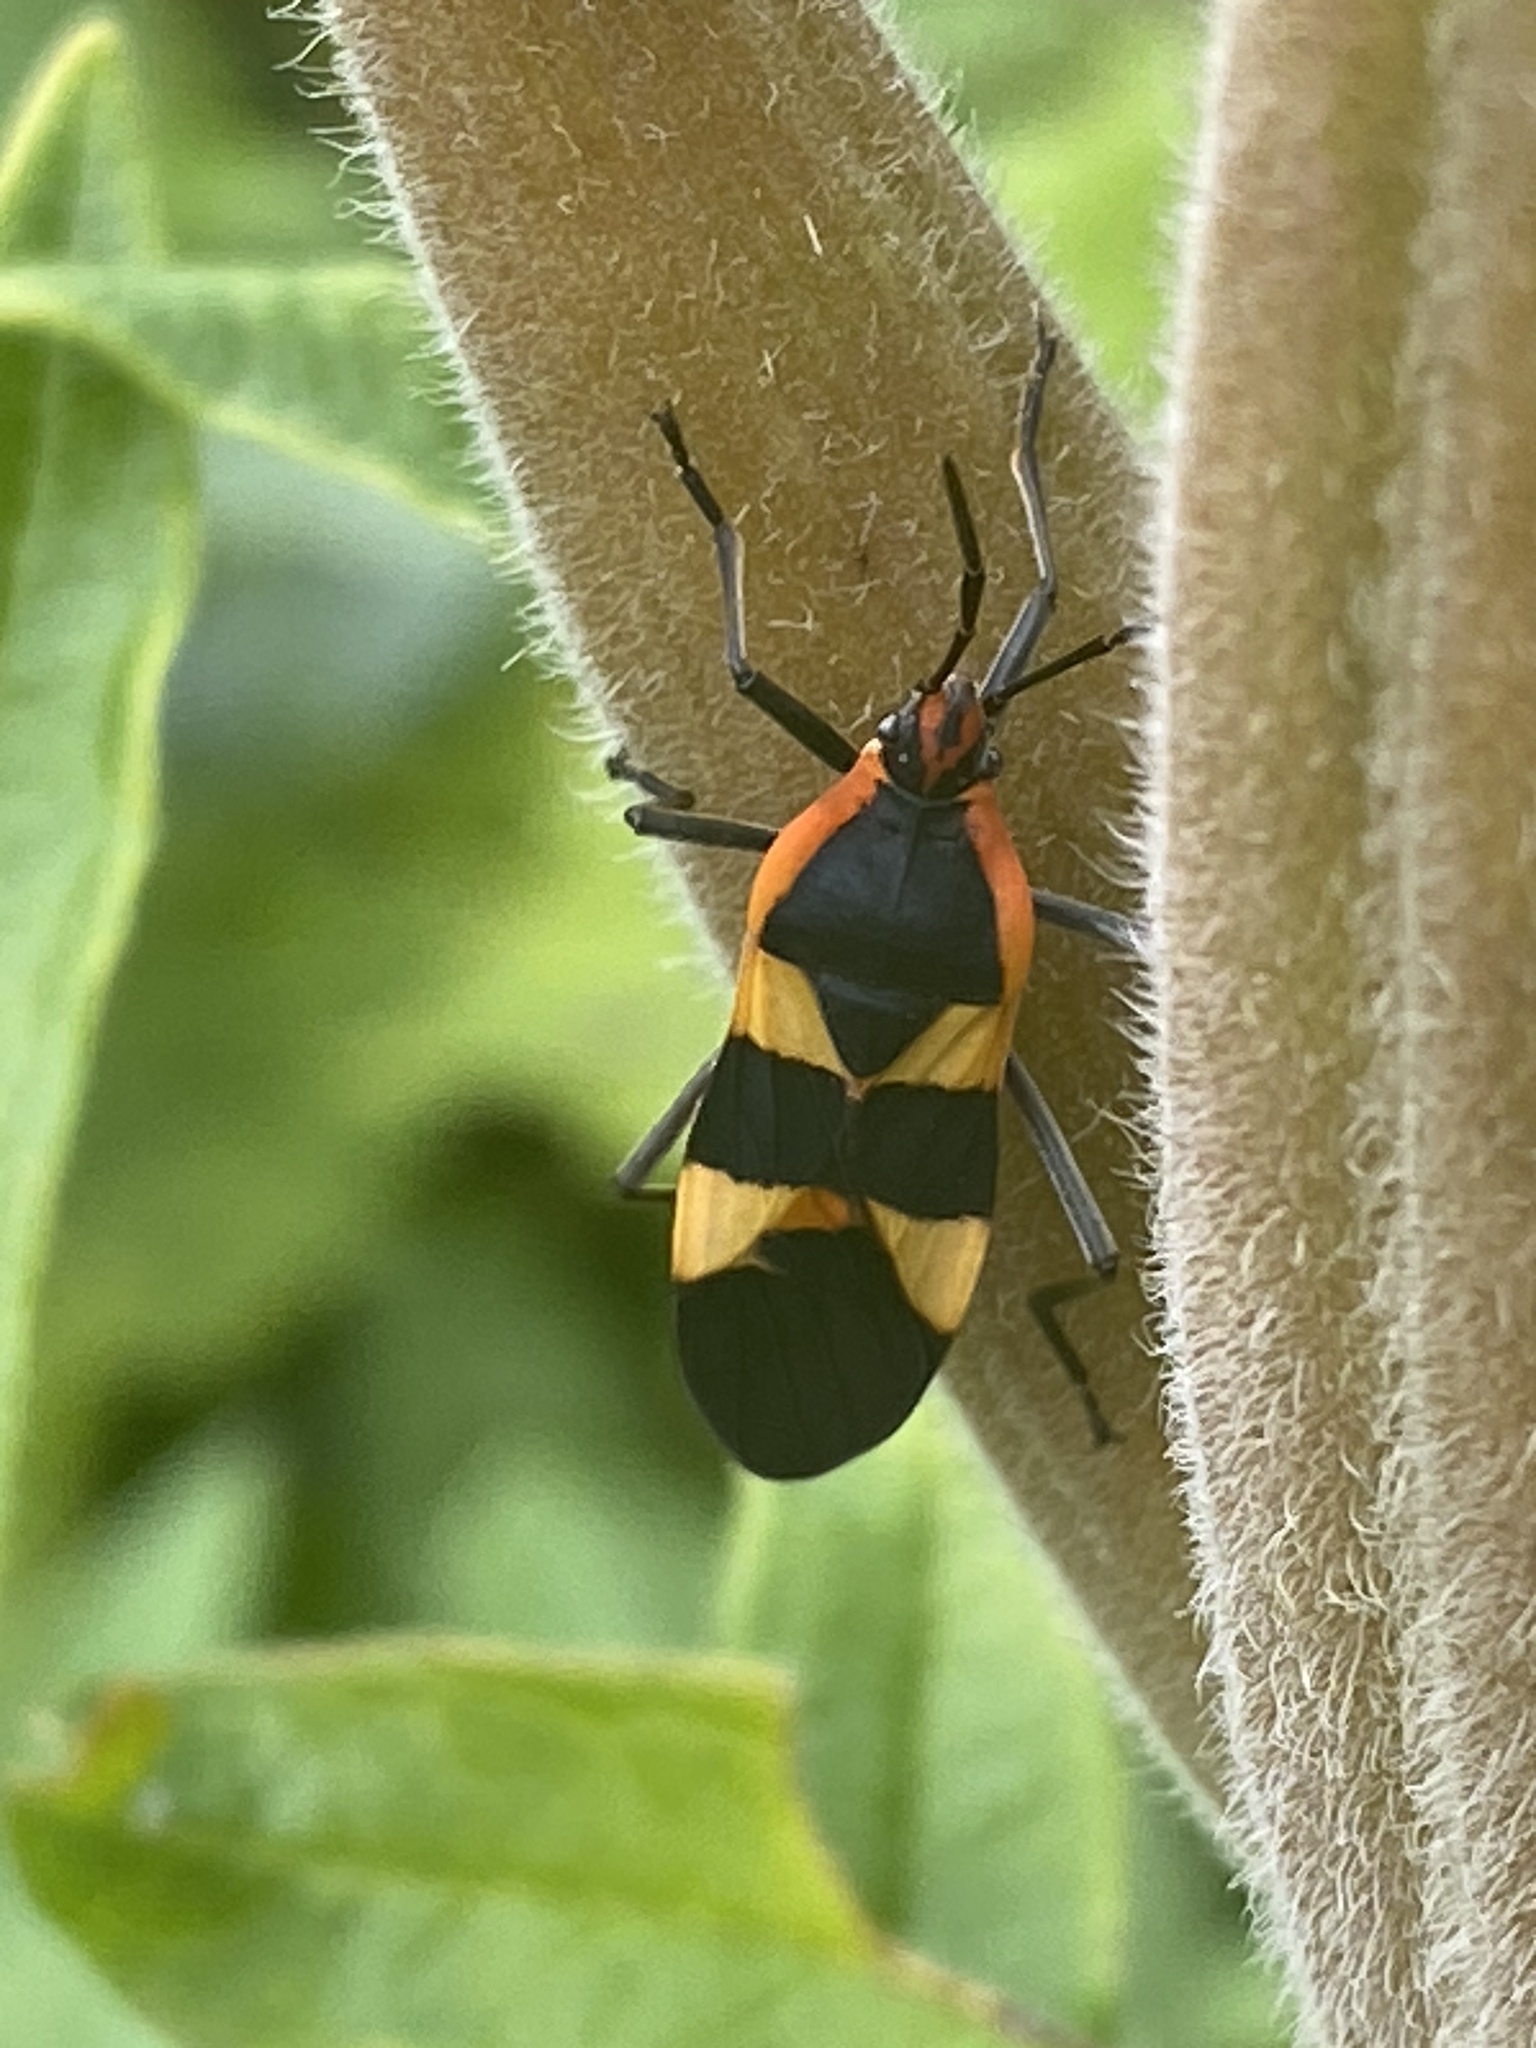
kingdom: Animalia
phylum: Arthropoda
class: Insecta
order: Hemiptera
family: Lygaeidae
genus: Oncopeltus
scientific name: Oncopeltus fasciatus
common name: Large milkweed bug
